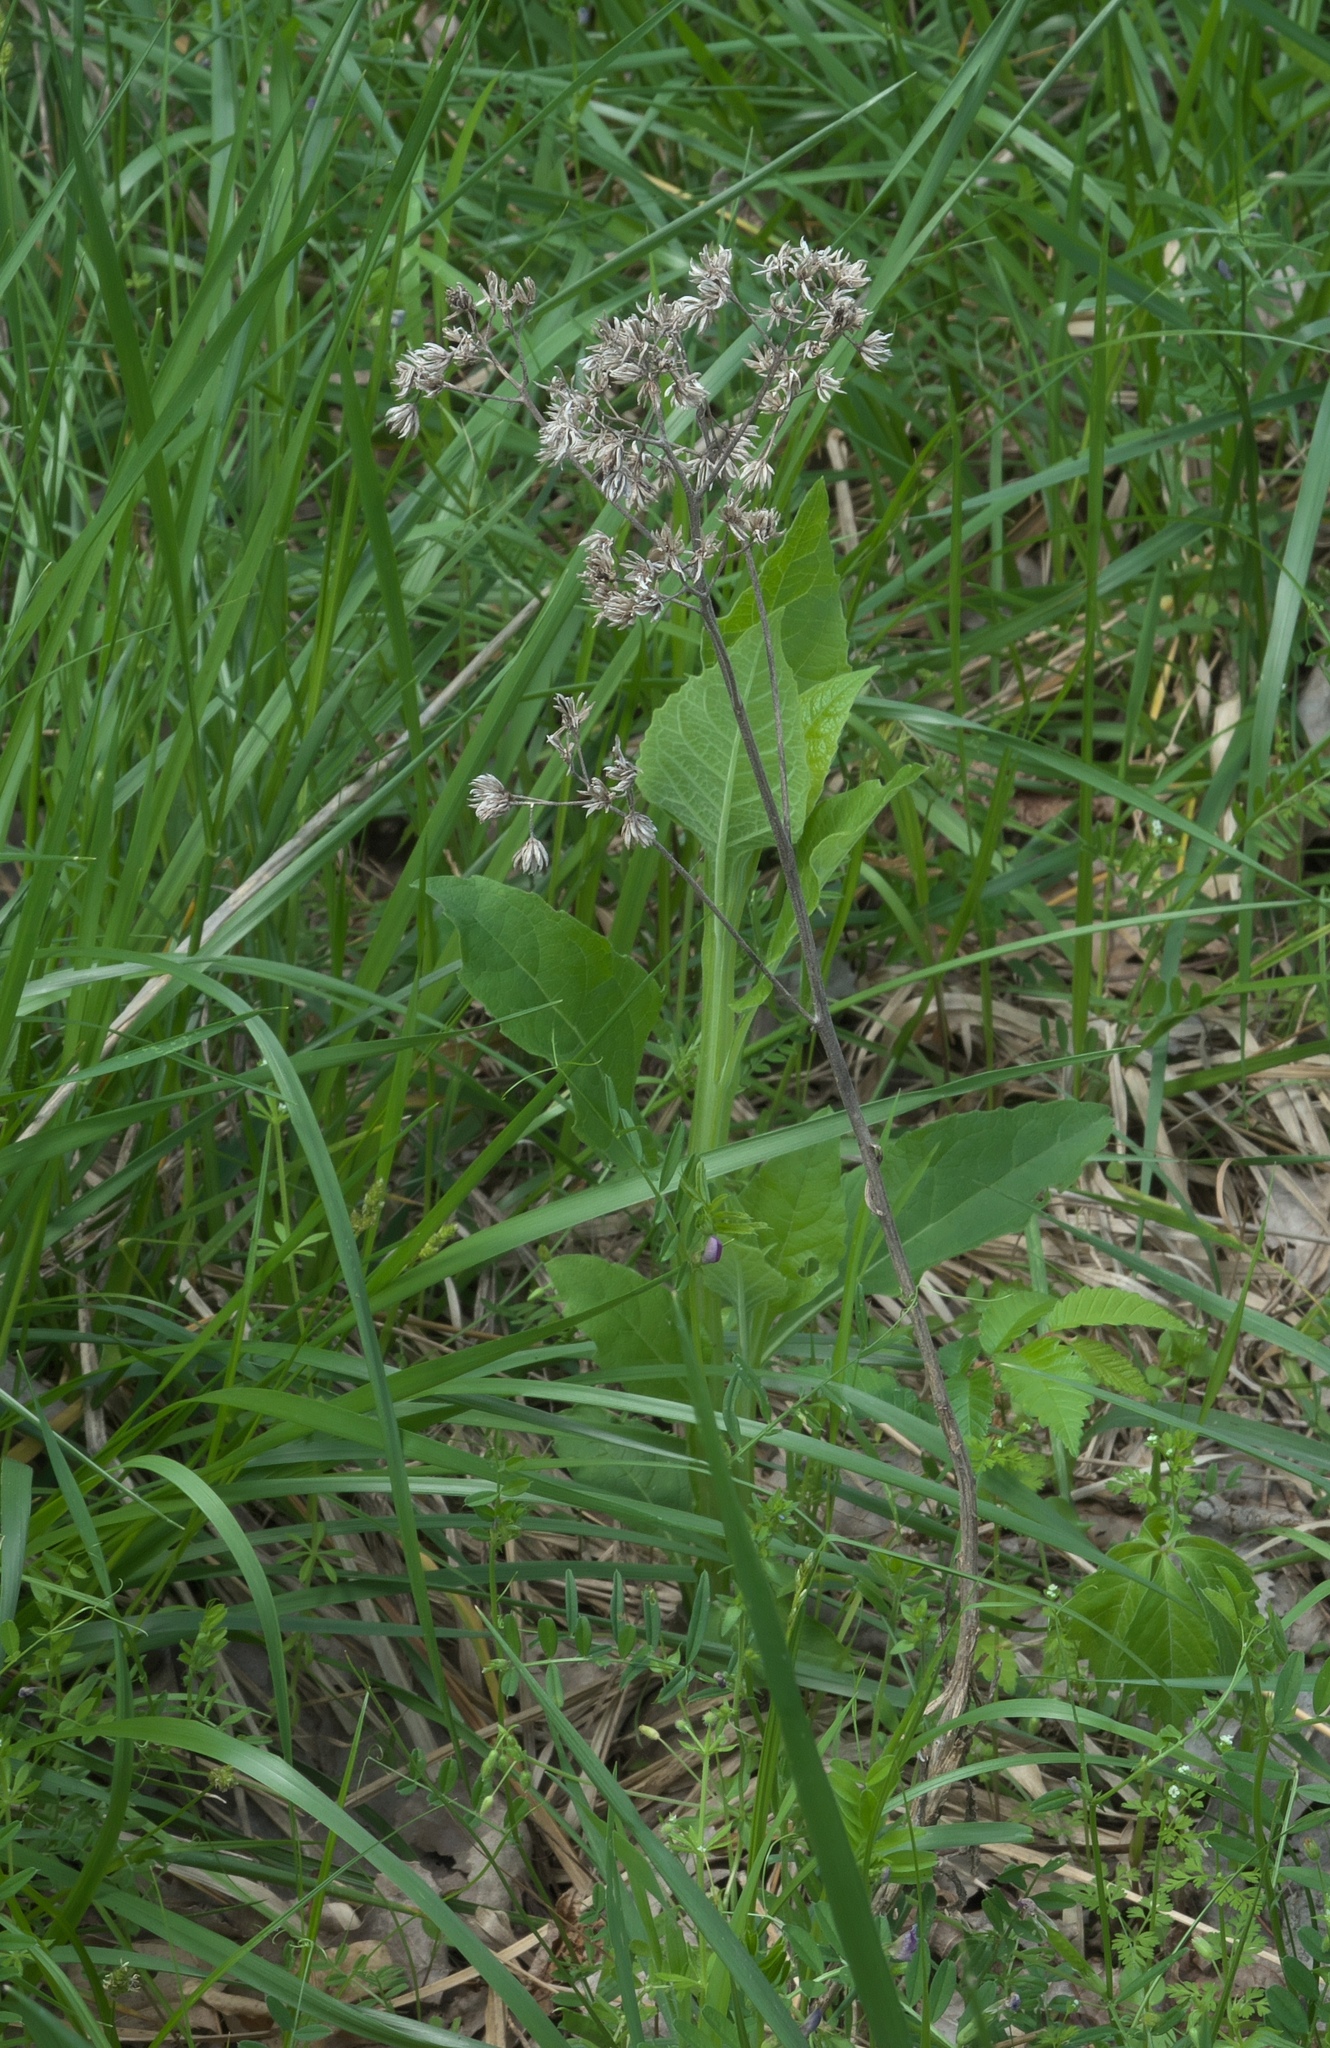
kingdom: Plantae
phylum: Tracheophyta
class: Magnoliopsida
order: Asterales
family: Asteraceae
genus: Verbesina
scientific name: Verbesina virginica
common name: Frostweed
